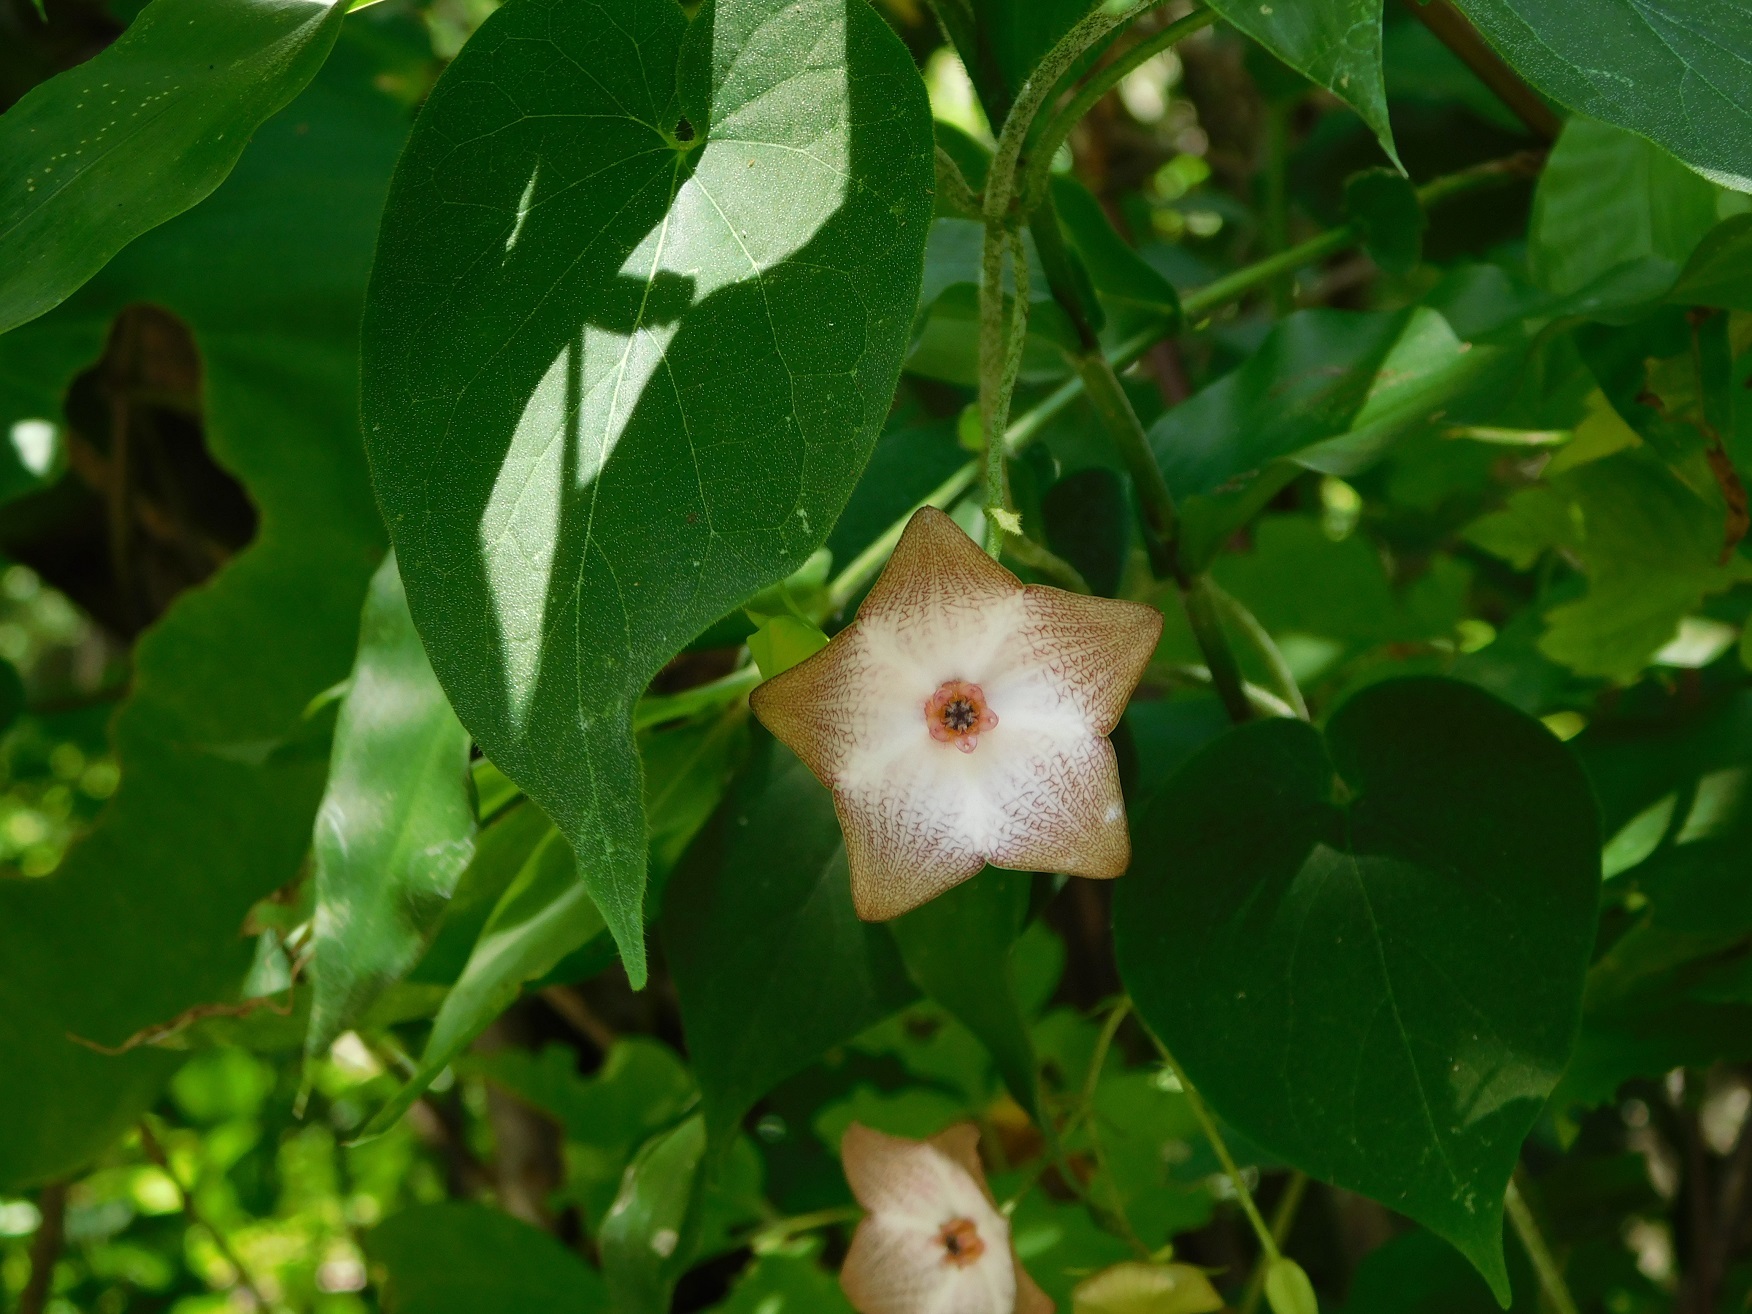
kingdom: Plantae
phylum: Tracheophyta
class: Magnoliopsida
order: Gentianales
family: Apocynaceae
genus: Polystemma
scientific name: Polystemma guatemalense
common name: Arborescente rattan
